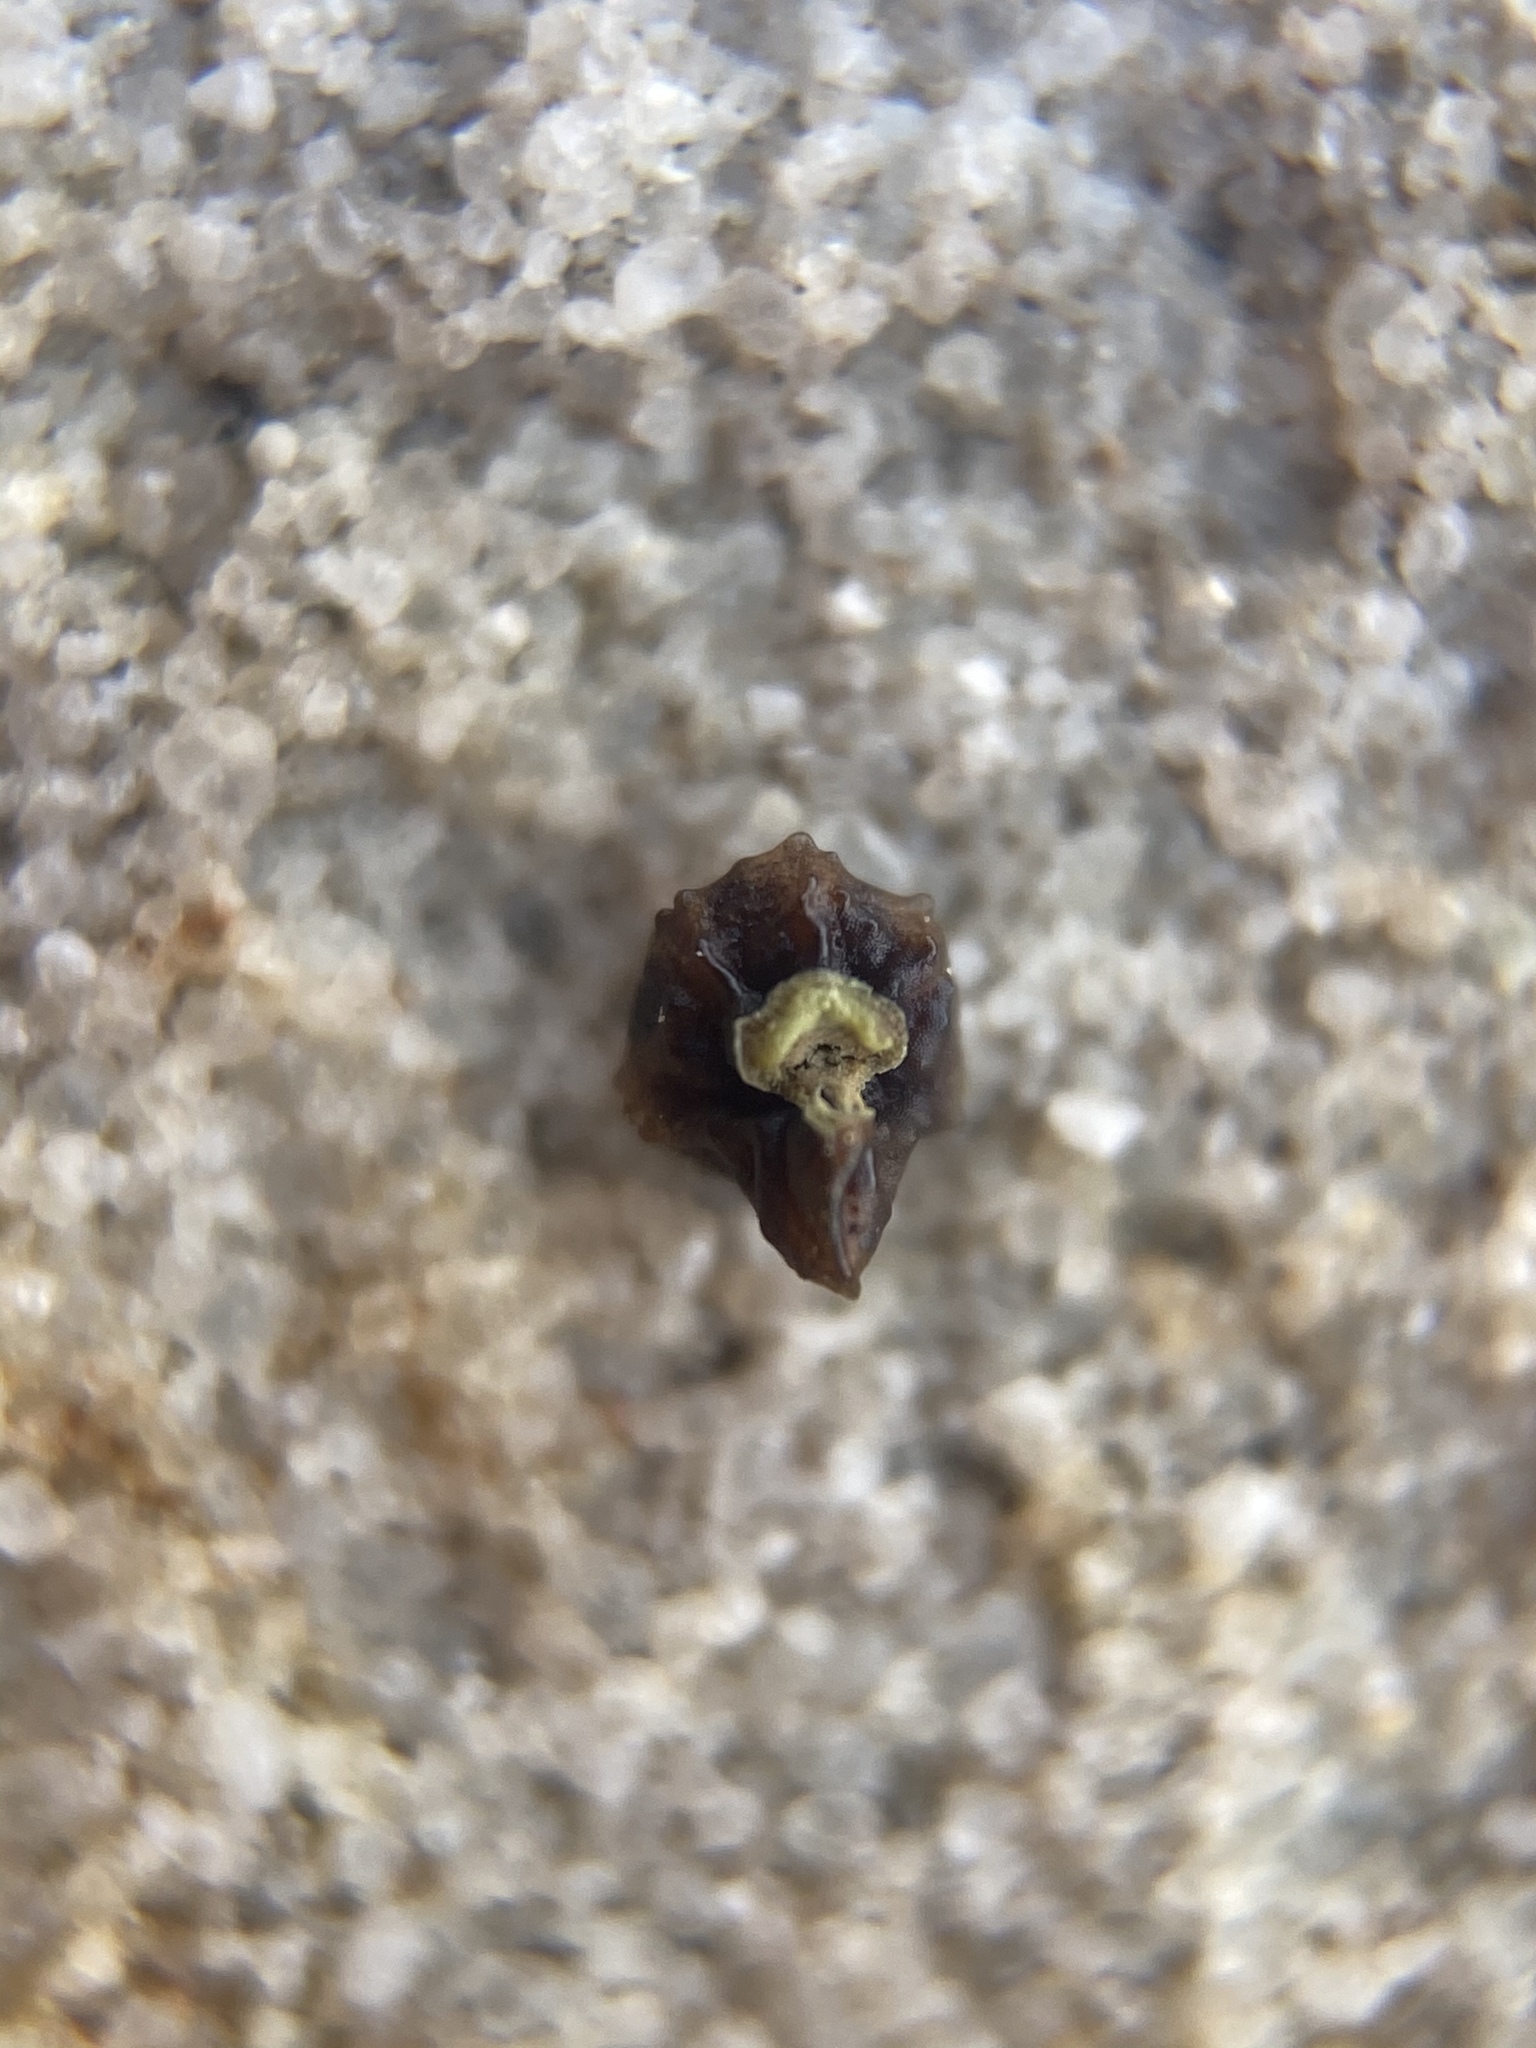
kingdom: Plantae
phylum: Tracheophyta
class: Magnoliopsida
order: Boraginales
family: Boraginaceae
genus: Plagiobothrys
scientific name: Plagiobothrys arizonicus
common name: Arizona popcorn-flower
